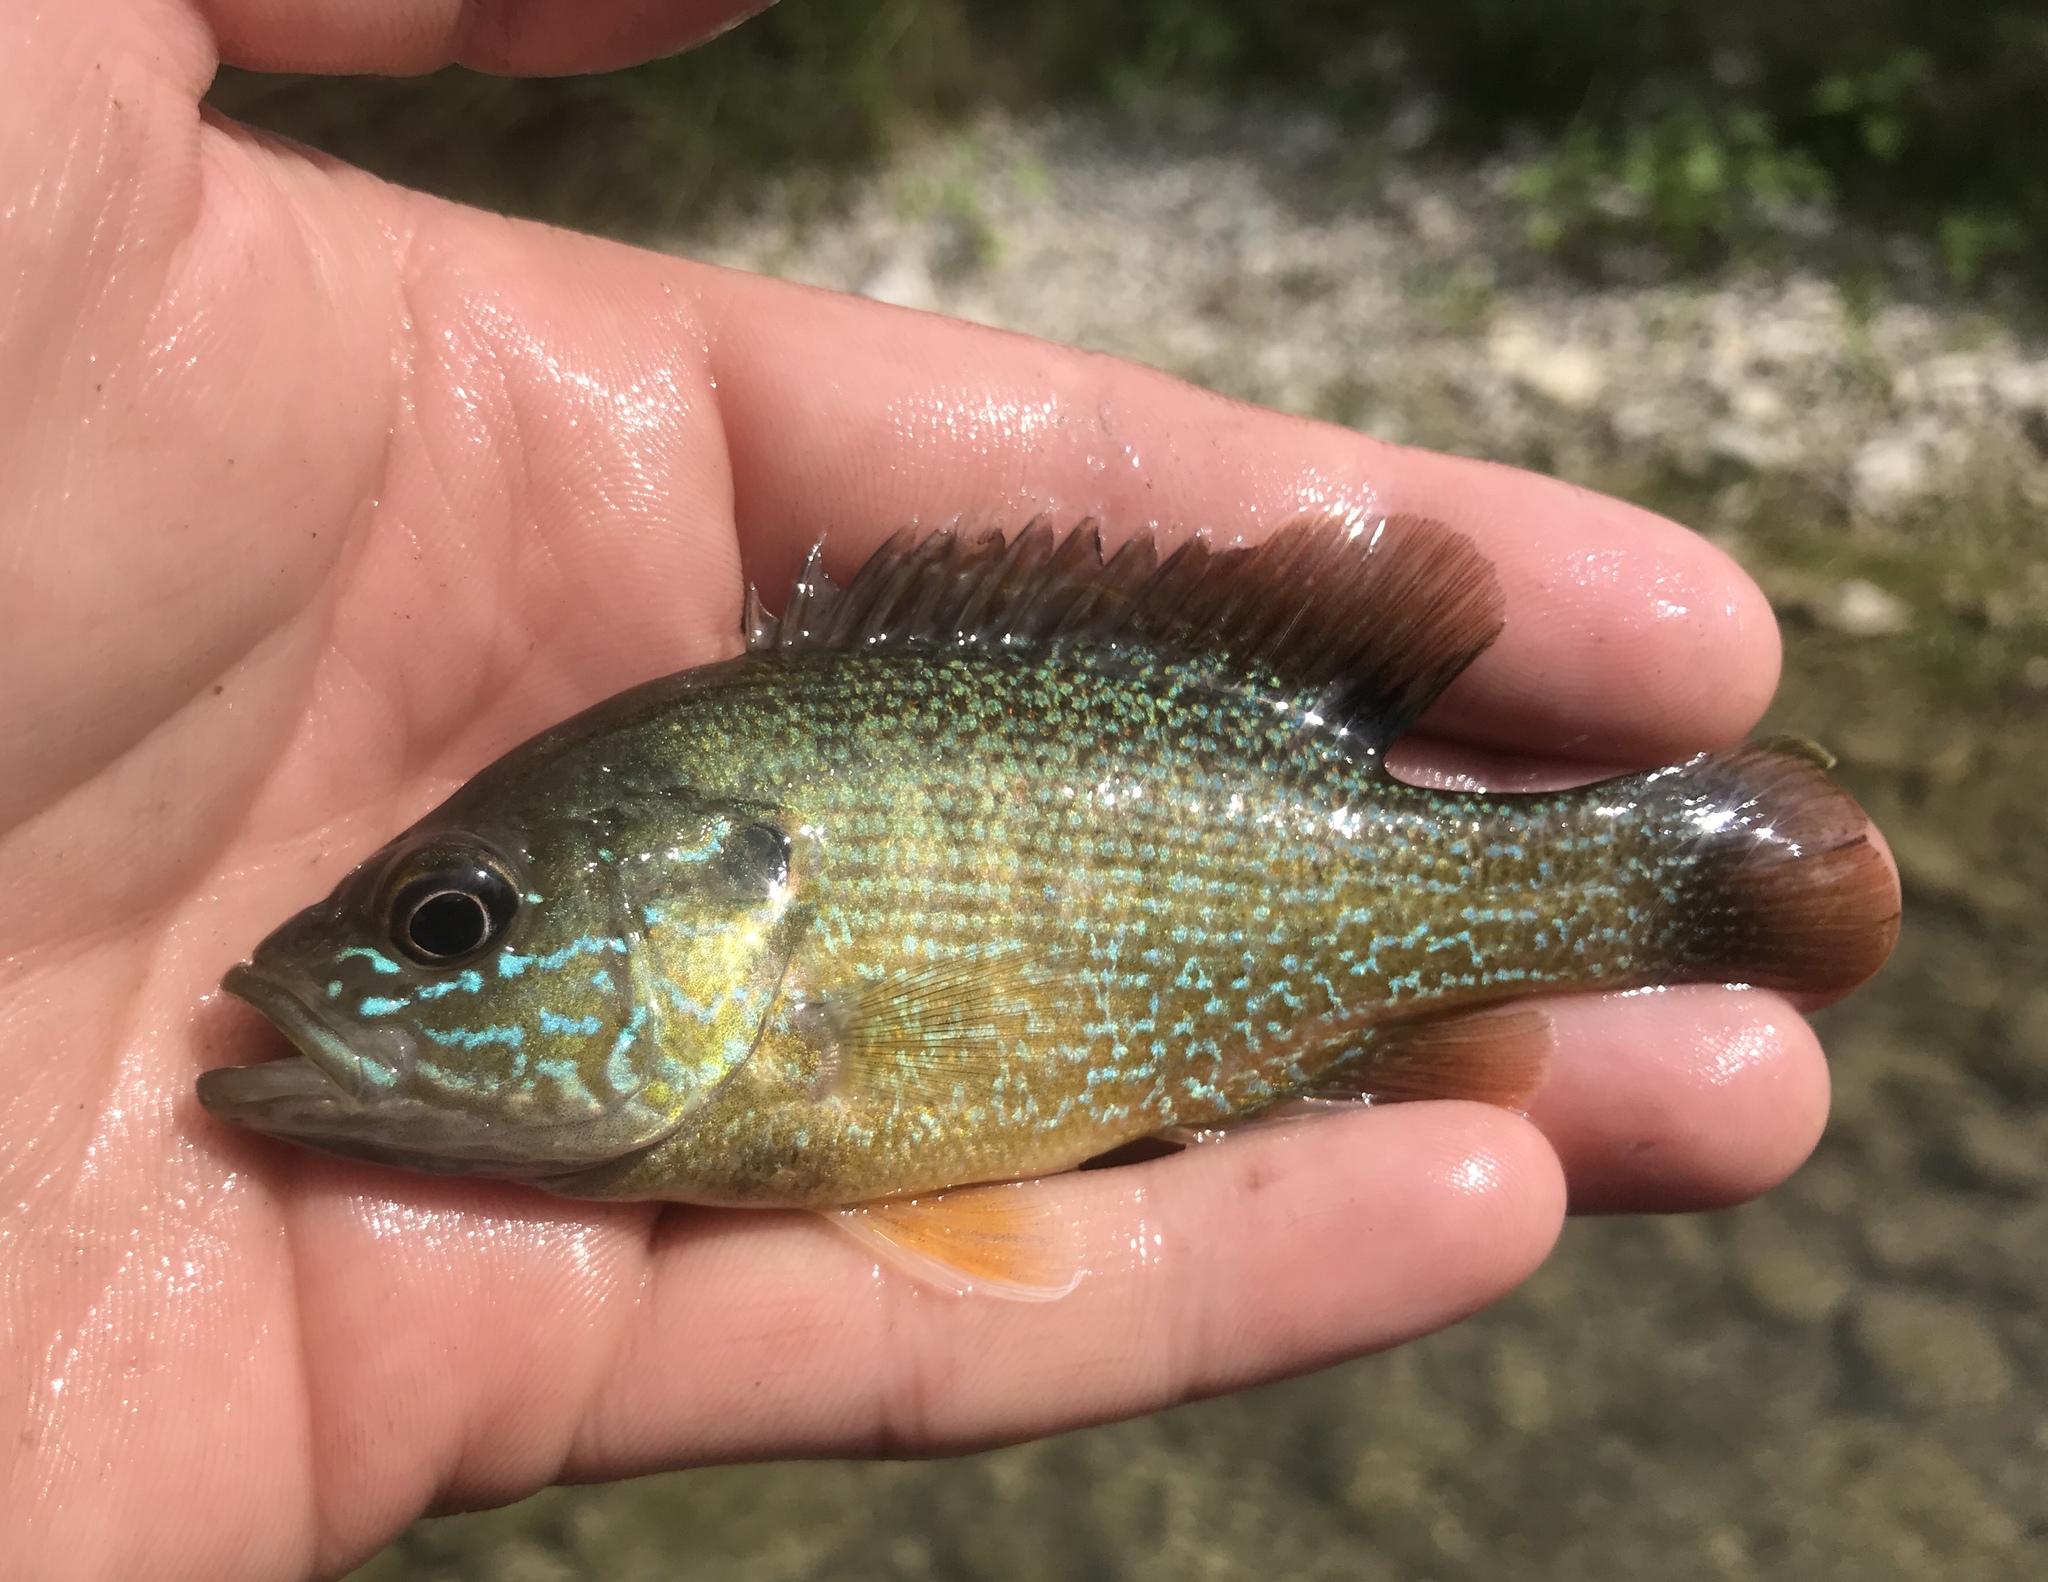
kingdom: Animalia
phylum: Chordata
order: Perciformes
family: Centrarchidae
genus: Lepomis
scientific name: Lepomis cyanellus
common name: Green sunfish
